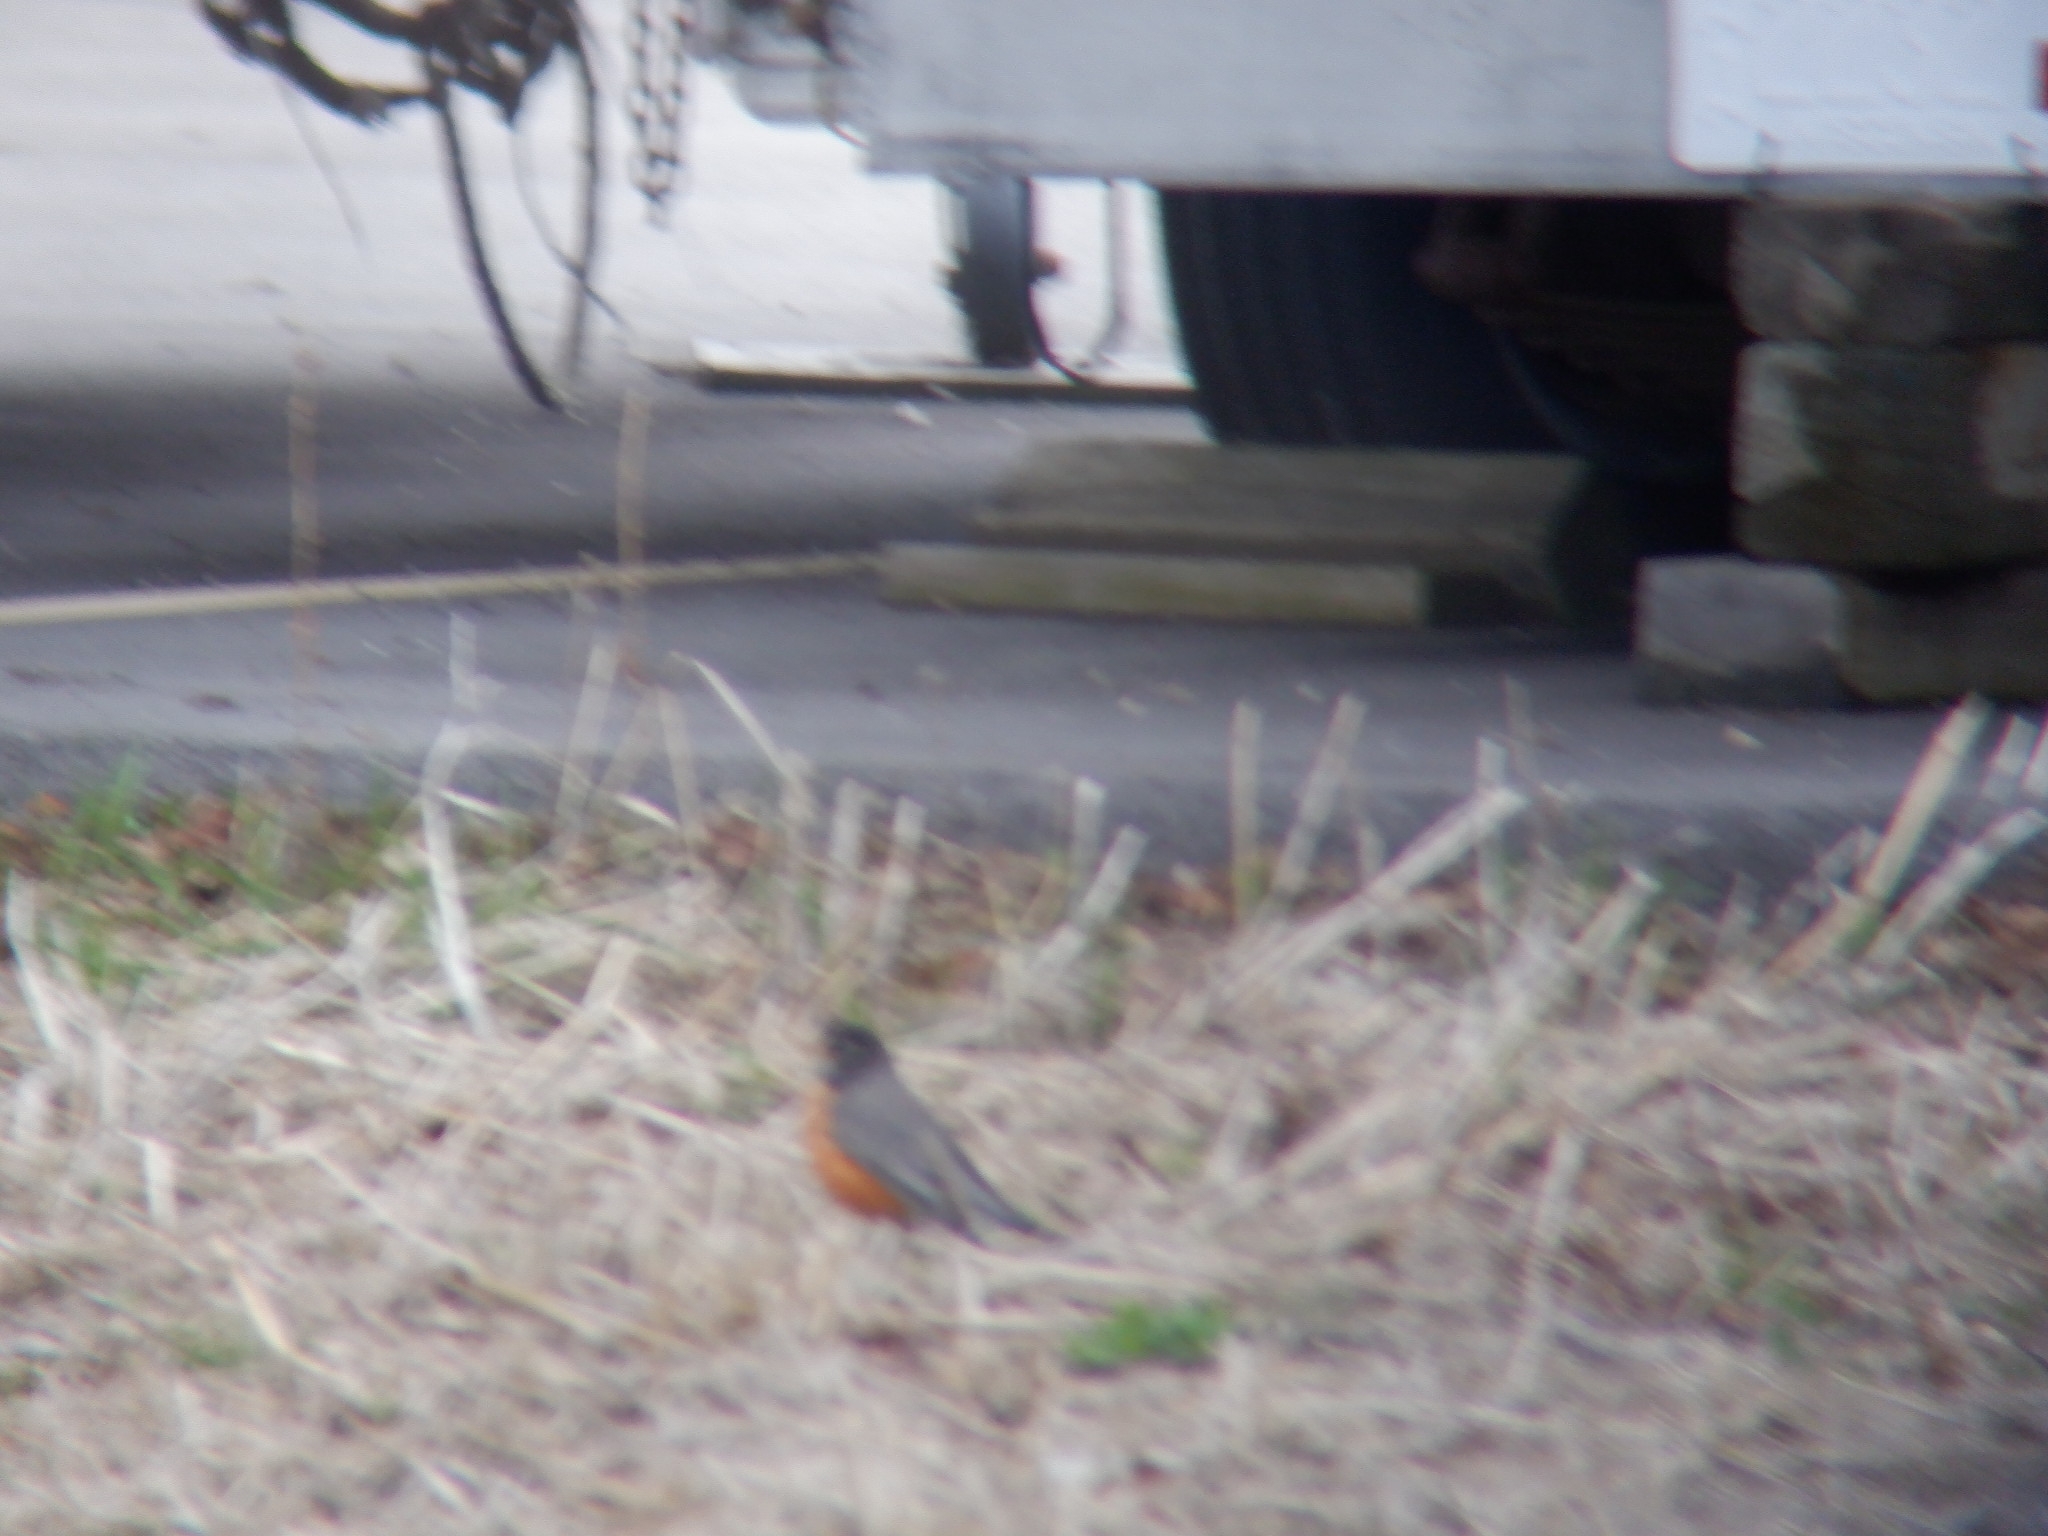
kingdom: Animalia
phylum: Chordata
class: Aves
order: Passeriformes
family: Turdidae
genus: Turdus
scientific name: Turdus migratorius
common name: American robin
